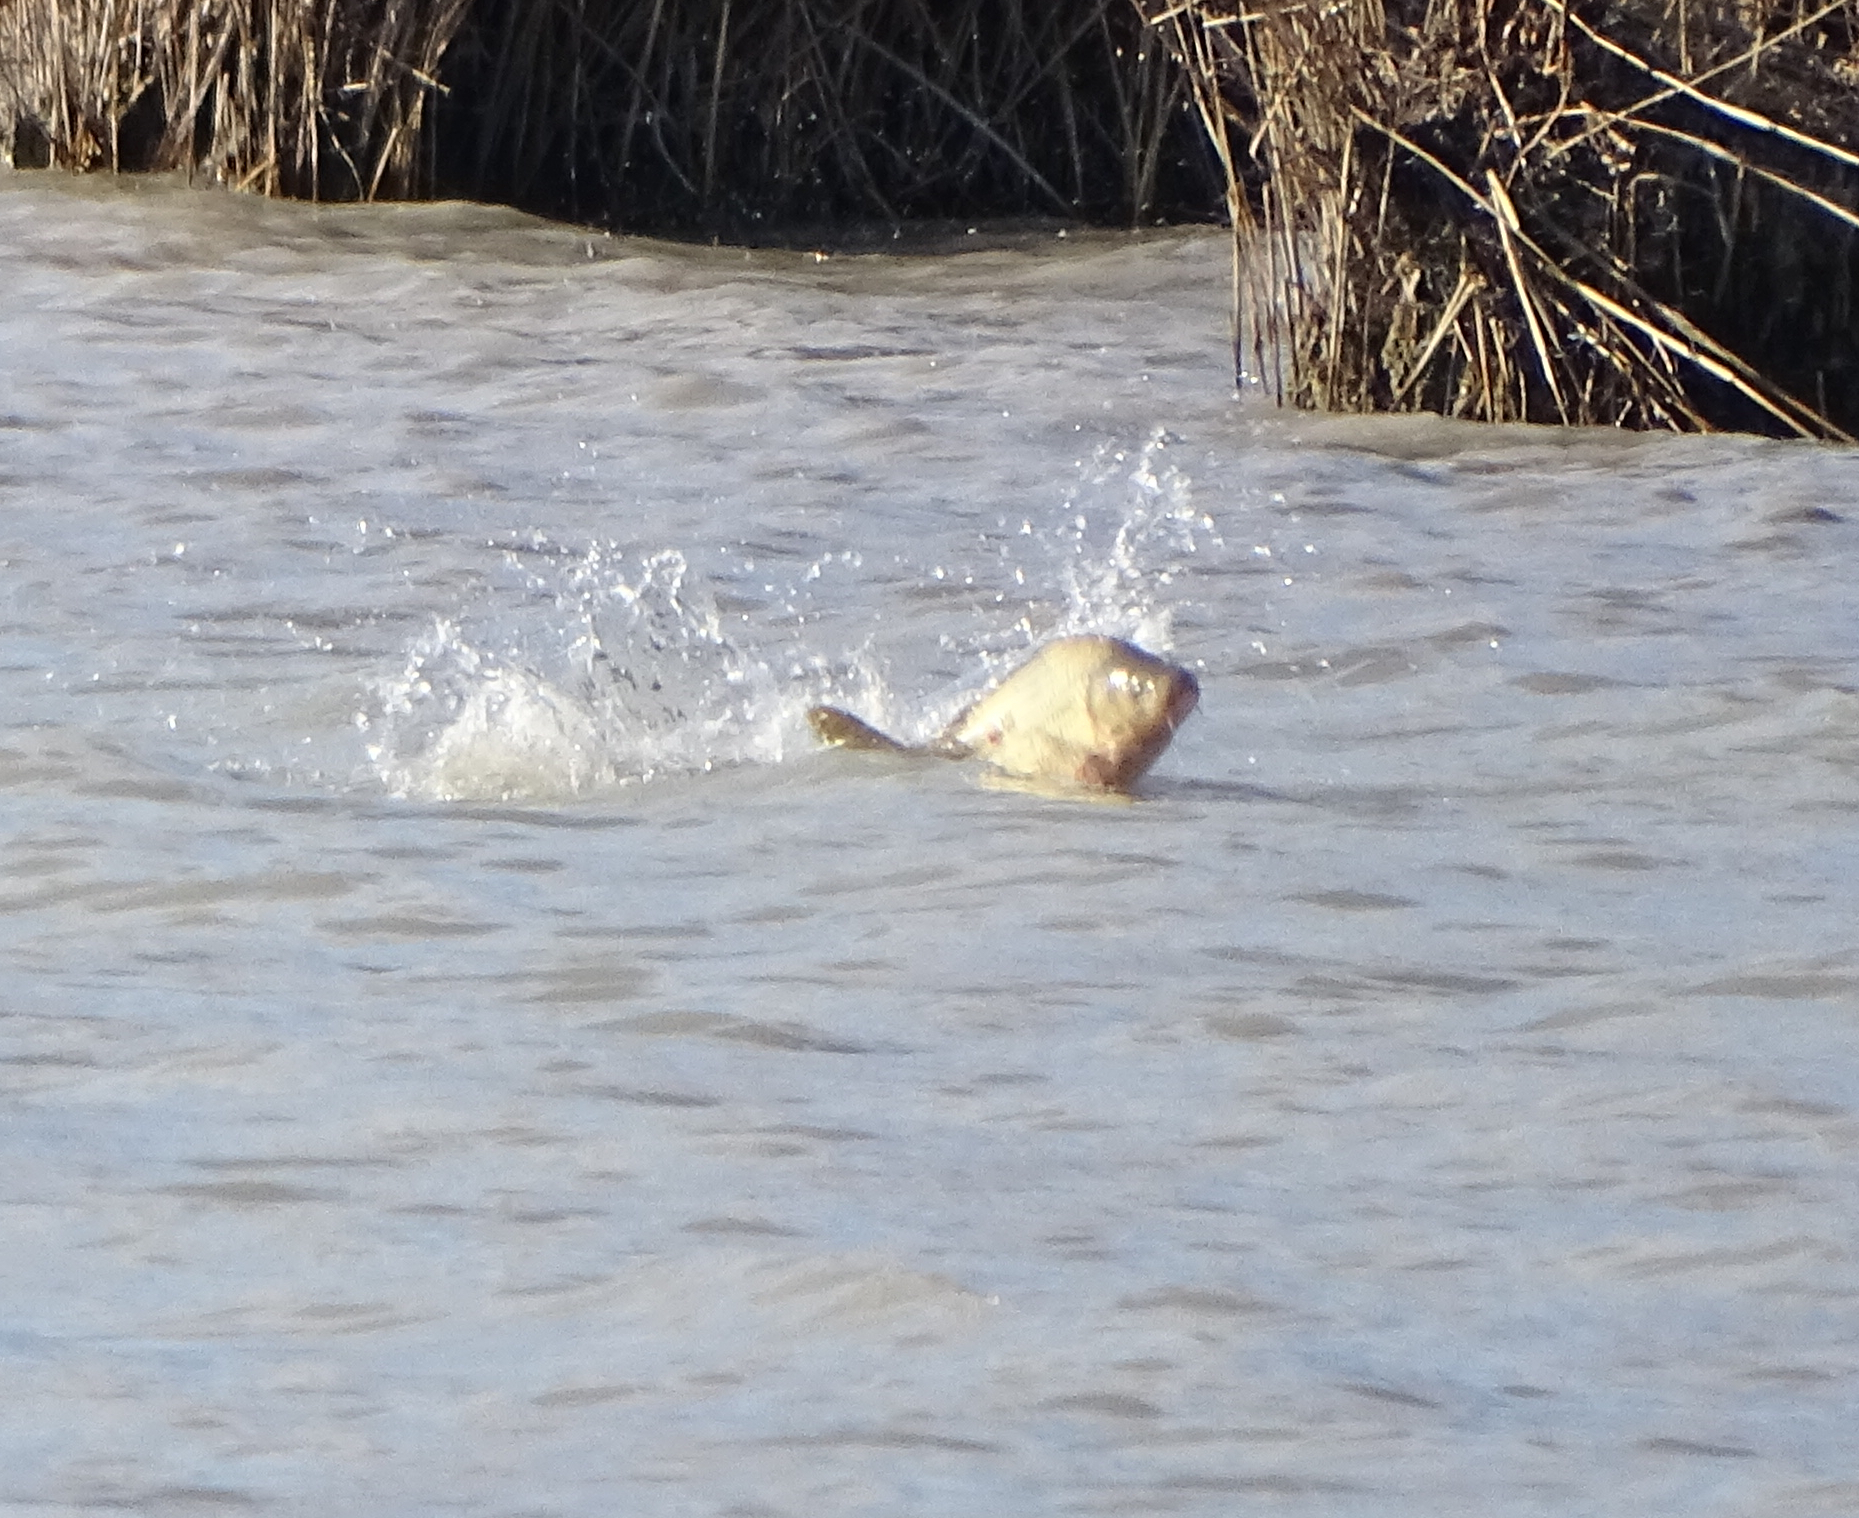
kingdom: Animalia
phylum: Chordata
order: Cypriniformes
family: Cyprinidae
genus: Cyprinus
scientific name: Cyprinus carpio
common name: Common carp
